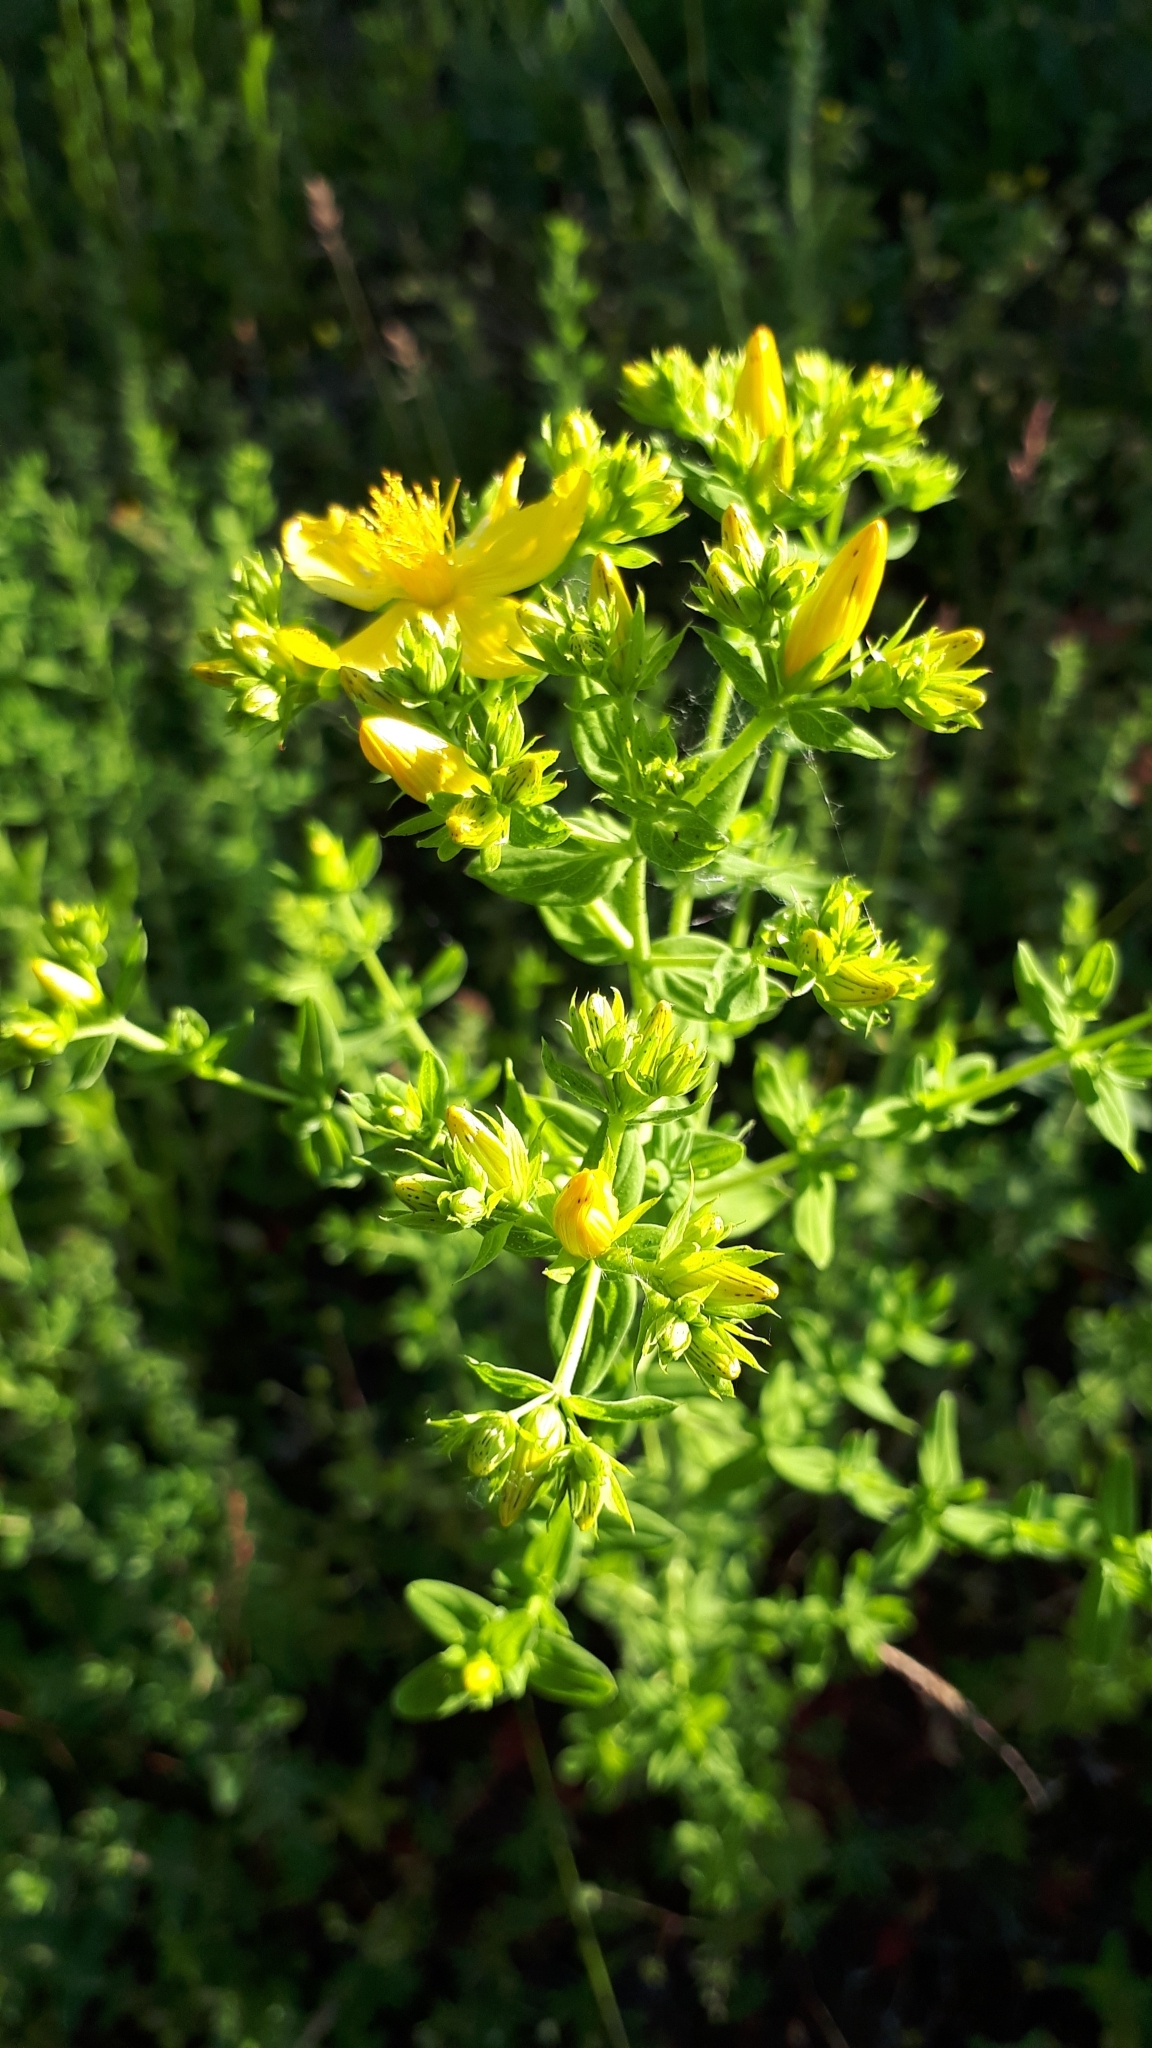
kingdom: Plantae
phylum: Tracheophyta
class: Magnoliopsida
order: Malpighiales
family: Hypericaceae
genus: Hypericum
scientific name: Hypericum perforatum
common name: Common st. johnswort
